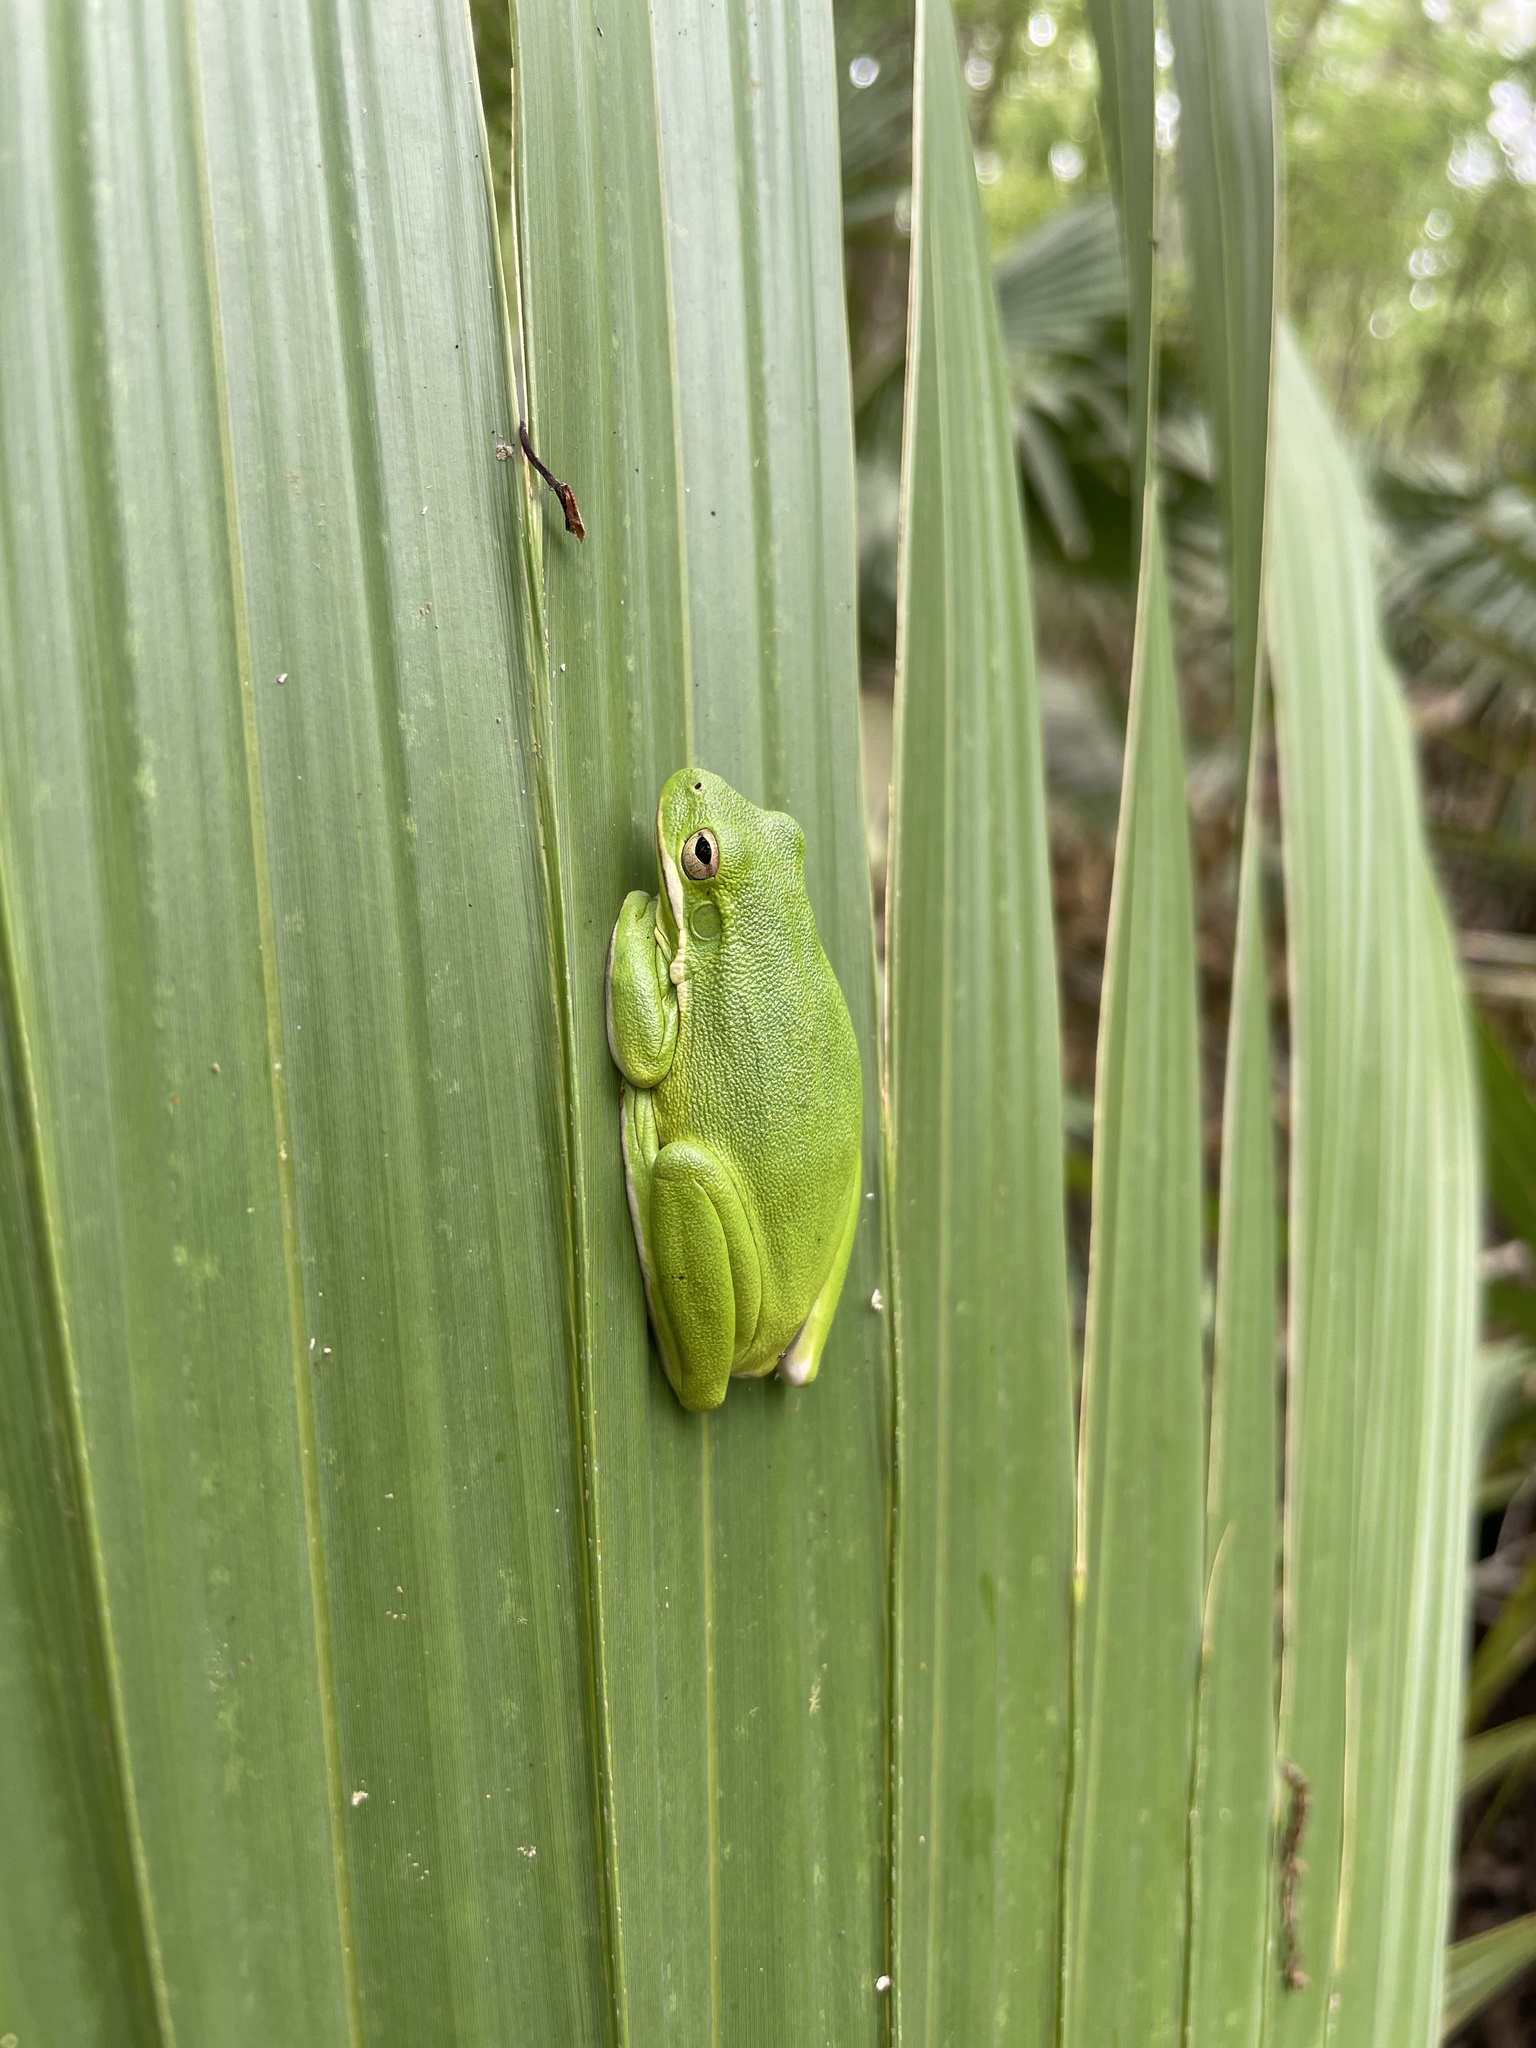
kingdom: Animalia
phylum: Chordata
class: Amphibia
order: Anura
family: Hylidae
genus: Dryophytes
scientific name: Dryophytes cinereus
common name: Green treefrog
